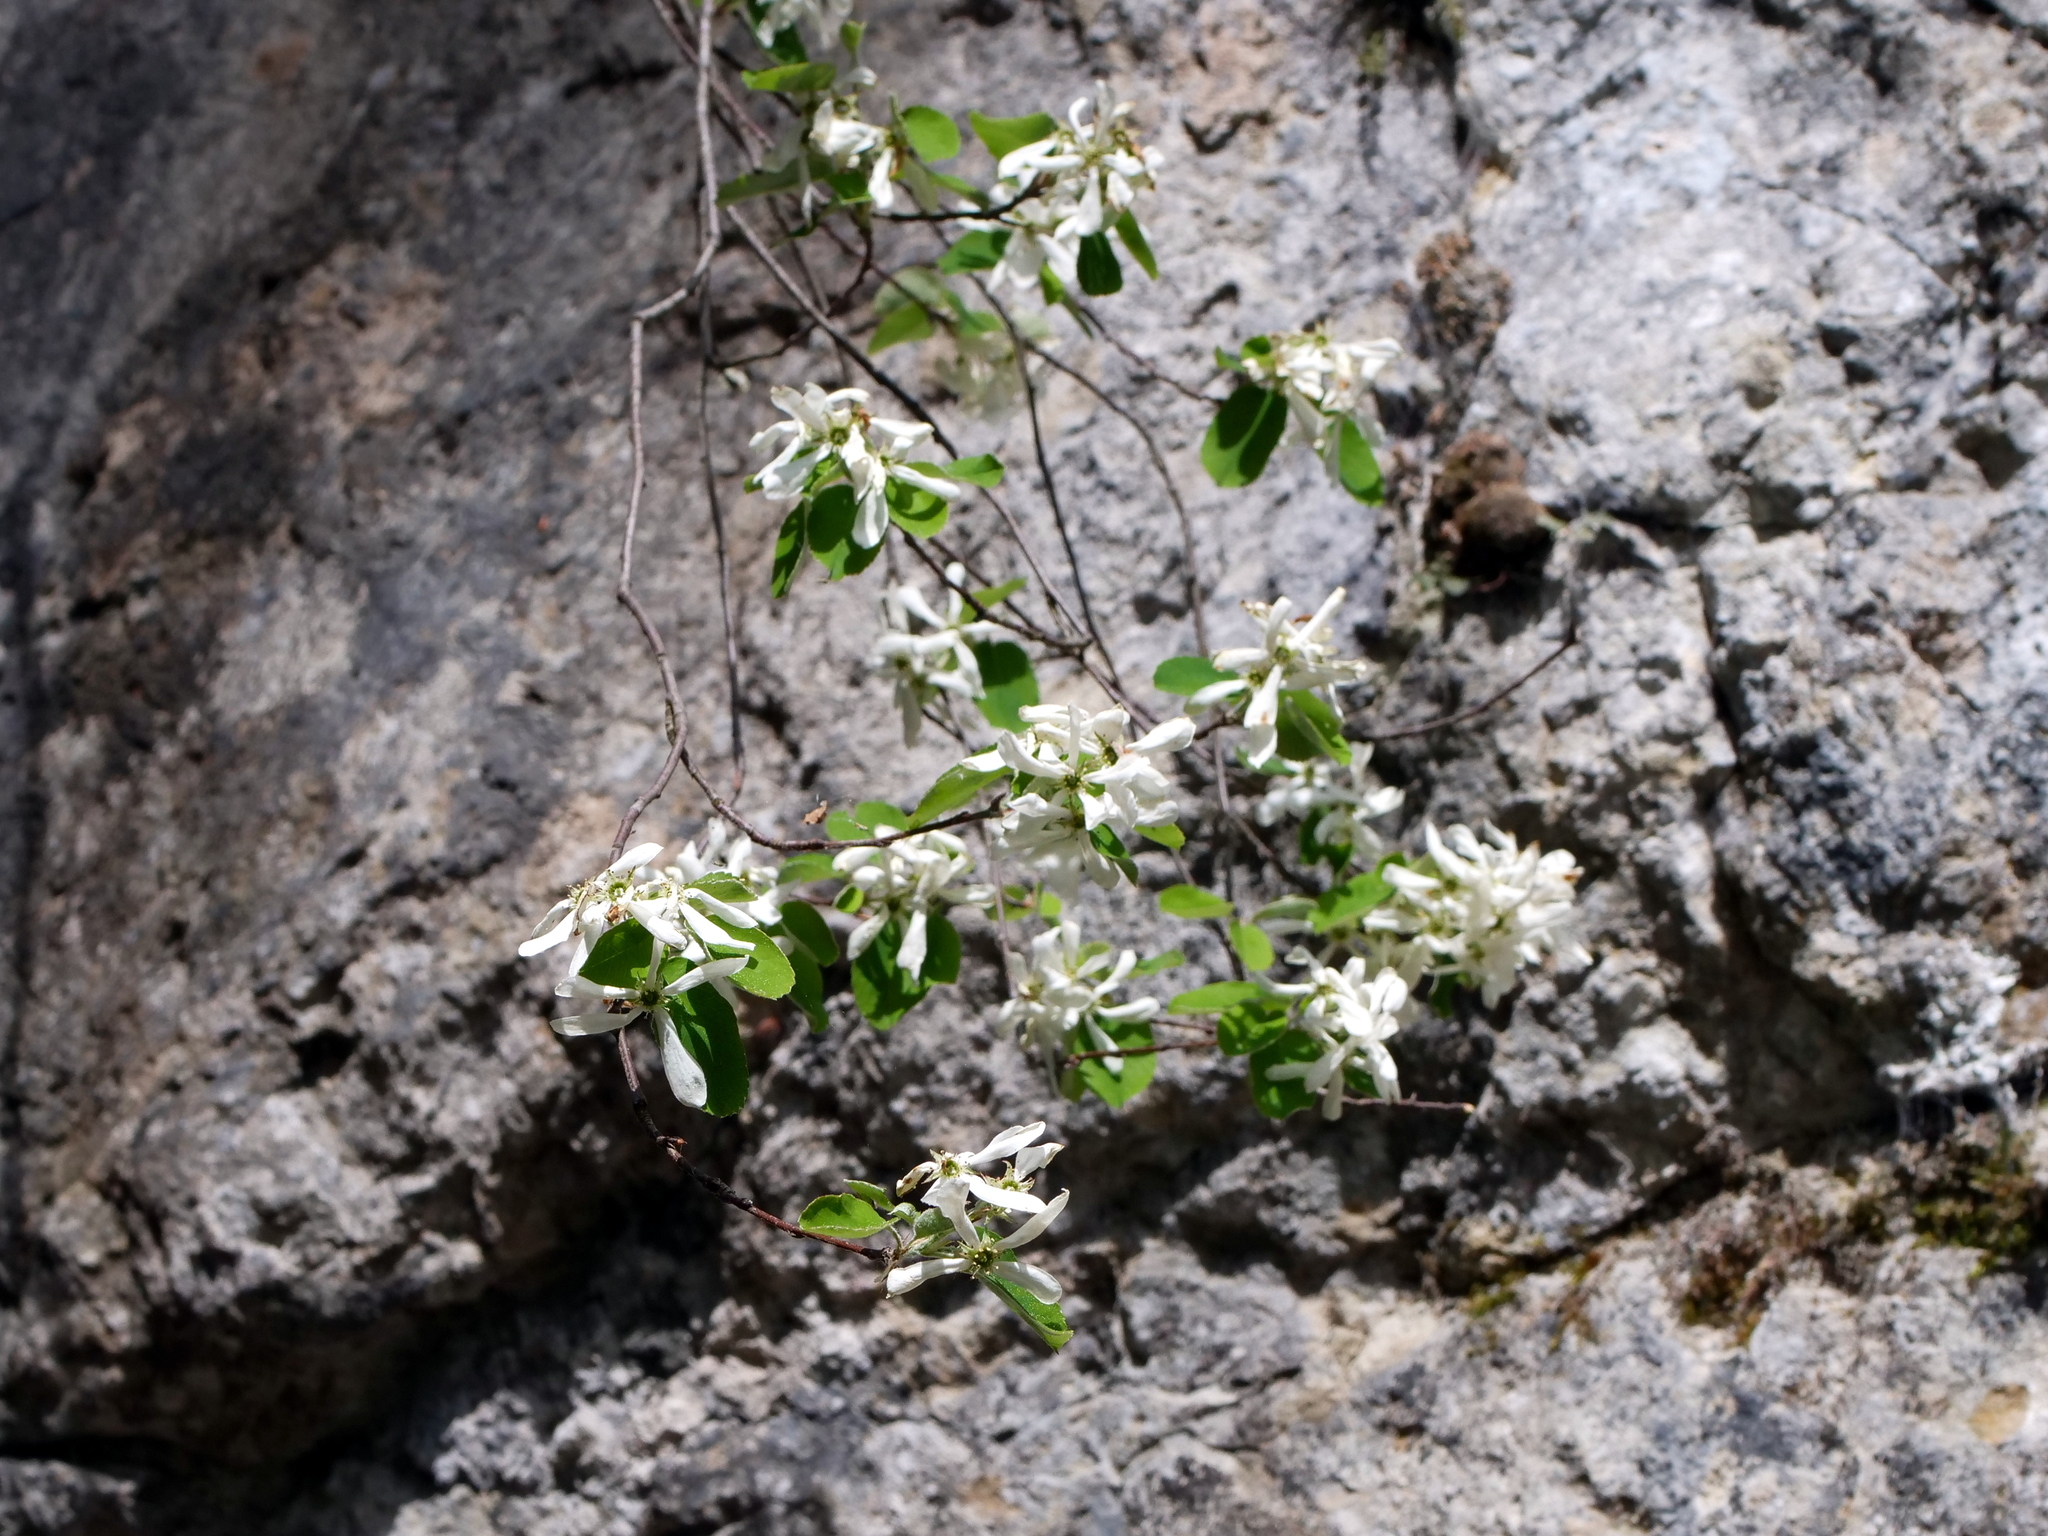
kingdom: Plantae
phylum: Tracheophyta
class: Magnoliopsida
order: Rosales
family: Rosaceae
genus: Amelanchier
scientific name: Amelanchier ovalis
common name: Serviceberry
